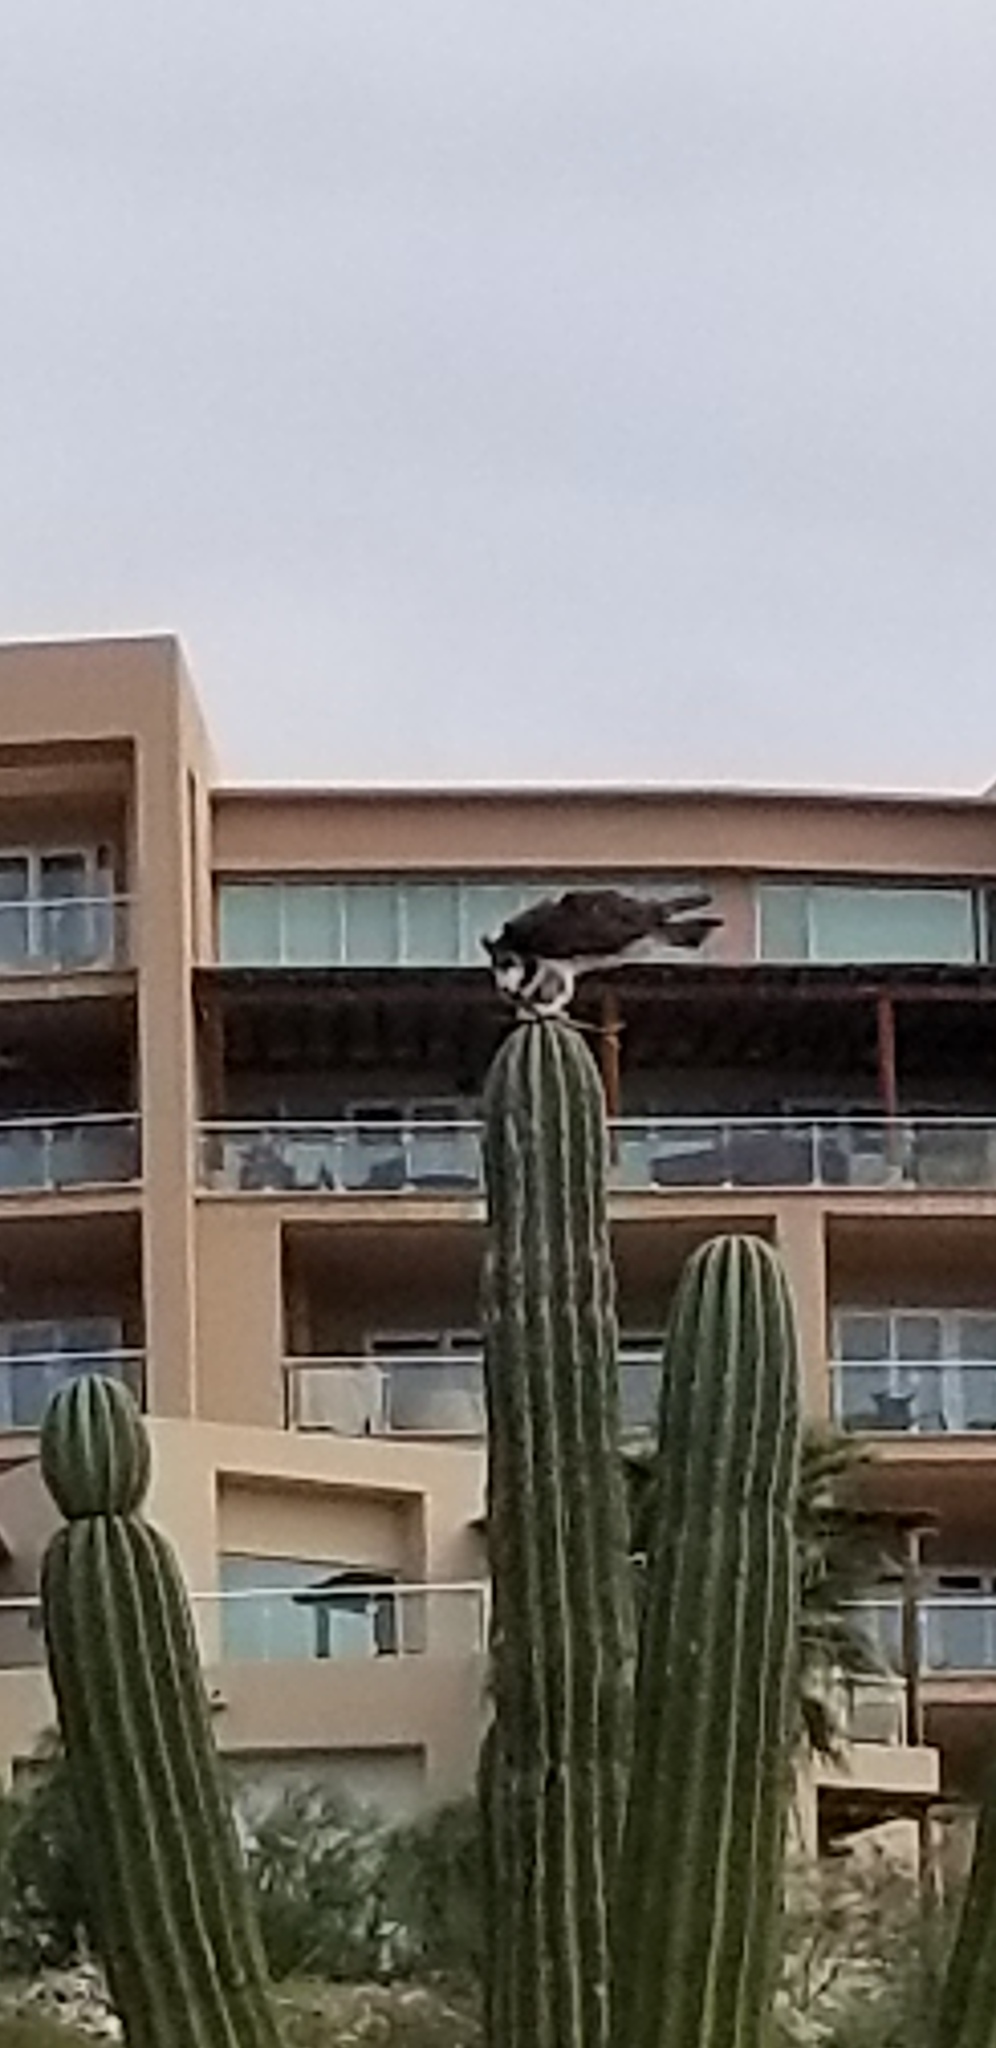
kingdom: Animalia
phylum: Chordata
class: Aves
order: Accipitriformes
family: Pandionidae
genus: Pandion
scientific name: Pandion haliaetus
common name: Osprey
